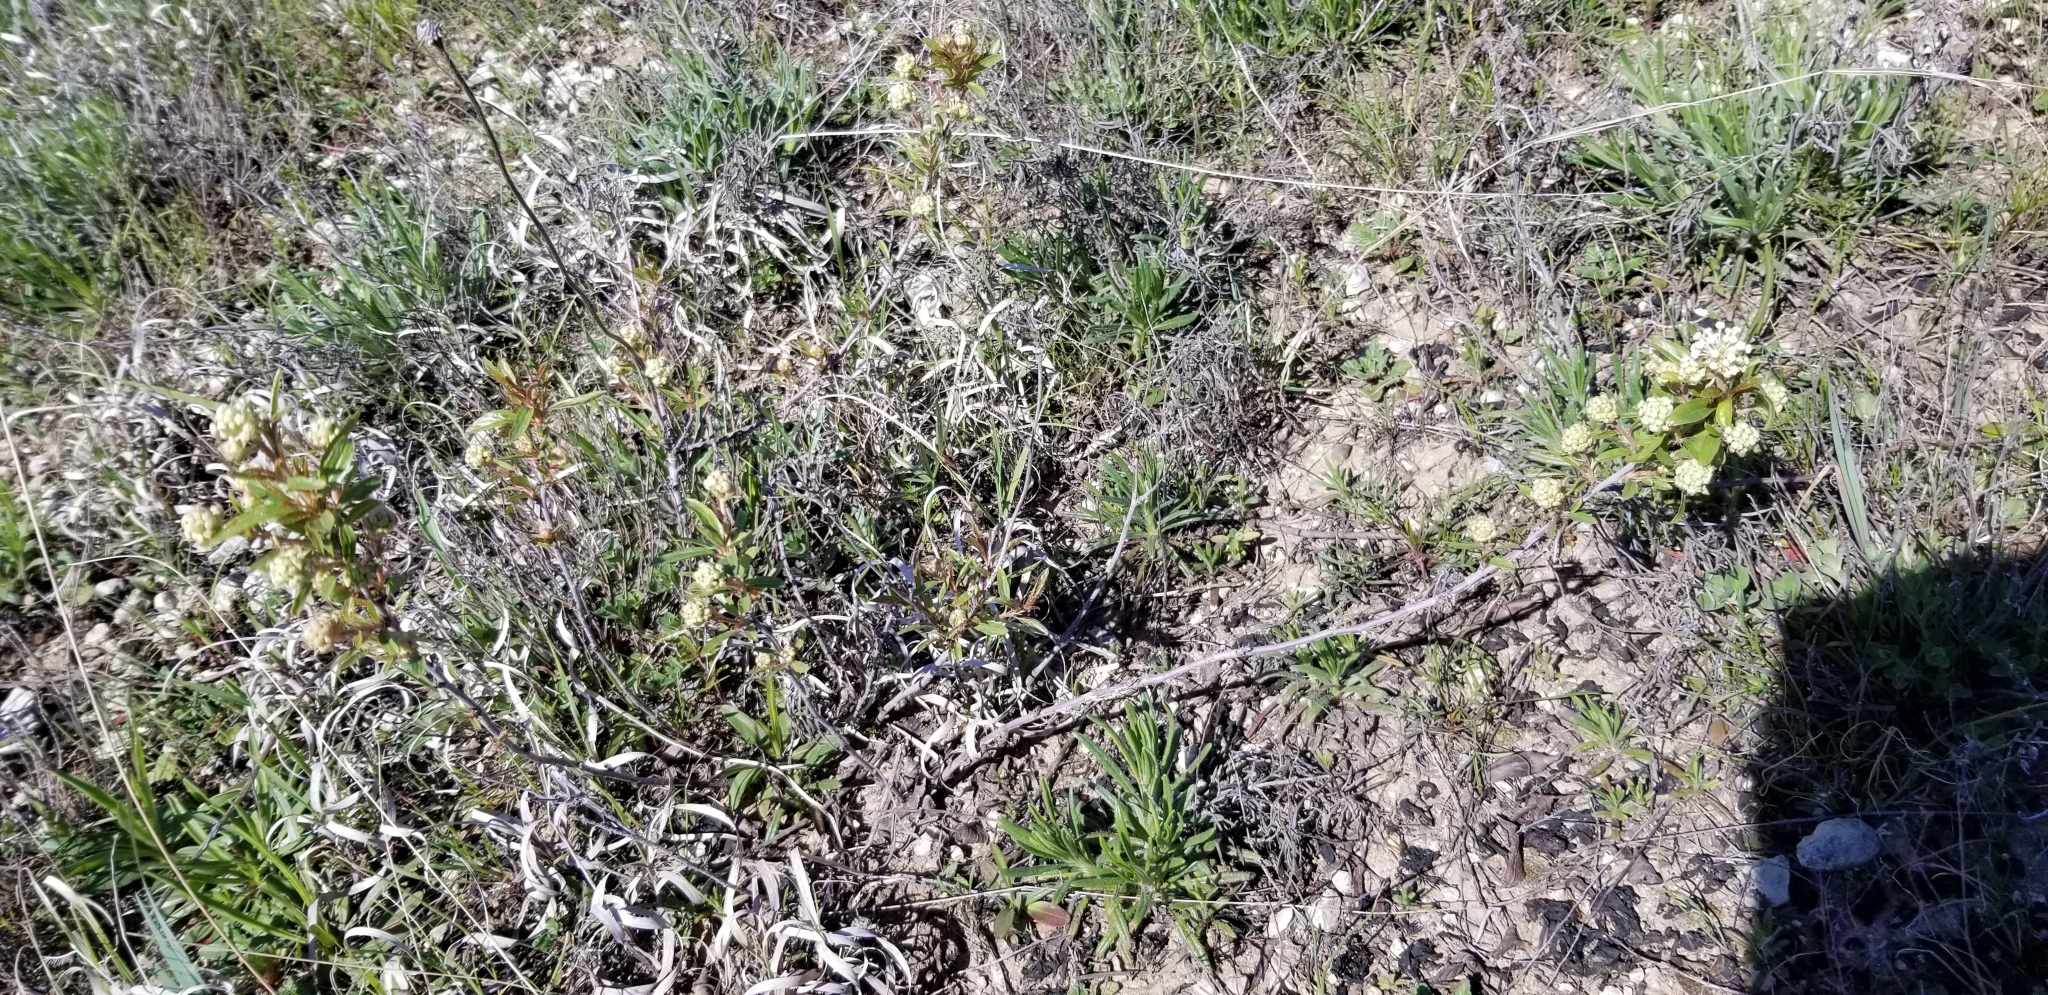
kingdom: Plantae
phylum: Tracheophyta
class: Magnoliopsida
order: Rosales
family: Rhamnaceae
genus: Ceanothus
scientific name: Ceanothus herbaceus
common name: Inland ceanothus
